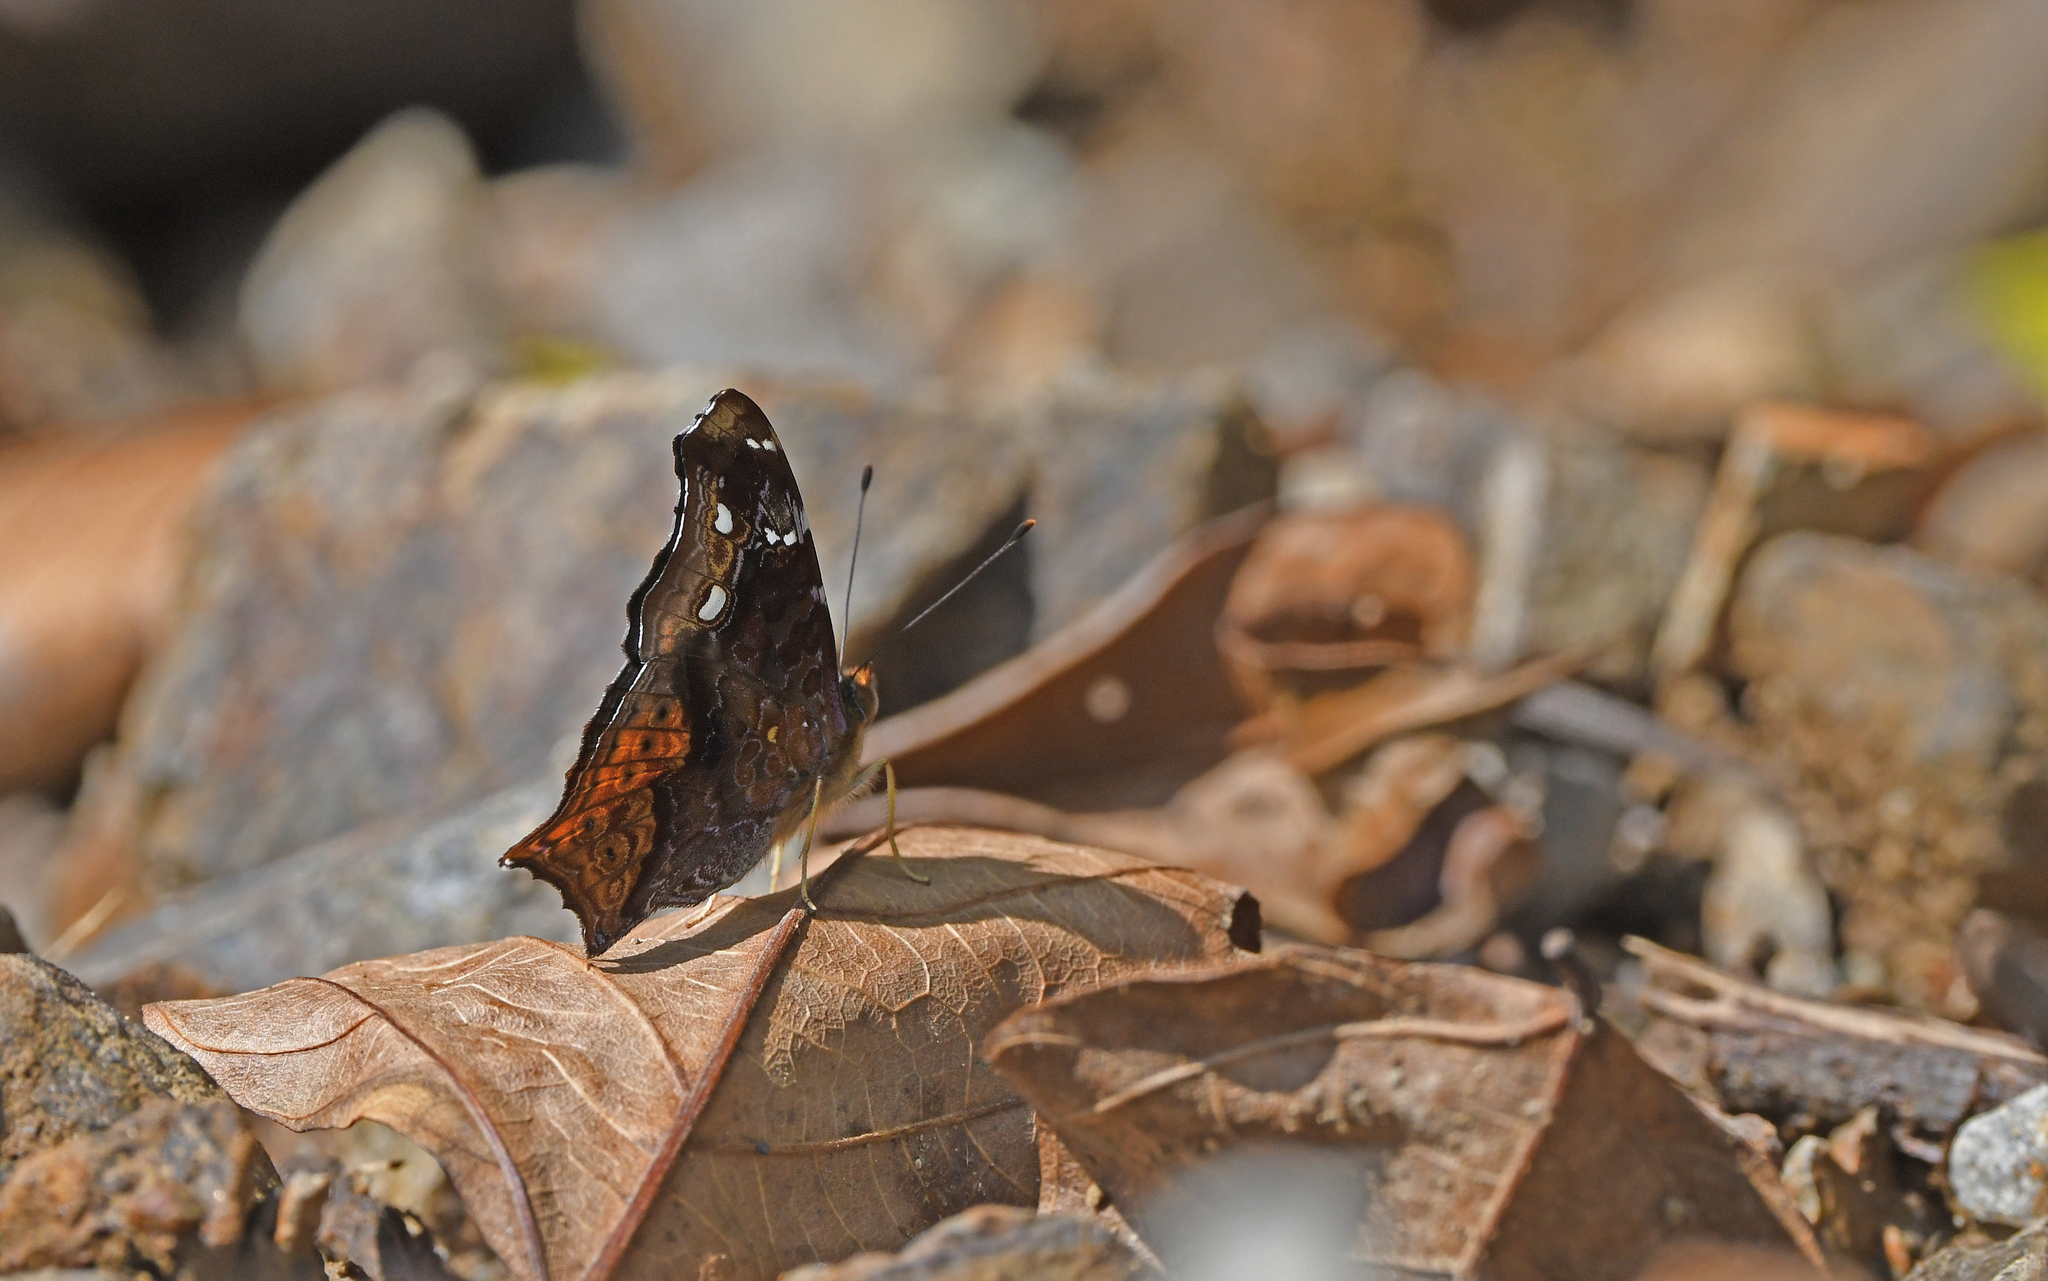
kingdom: Animalia
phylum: Arthropoda
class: Insecta
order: Lepidoptera
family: Nymphalidae
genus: Hypanartia
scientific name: Hypanartia cinderella
